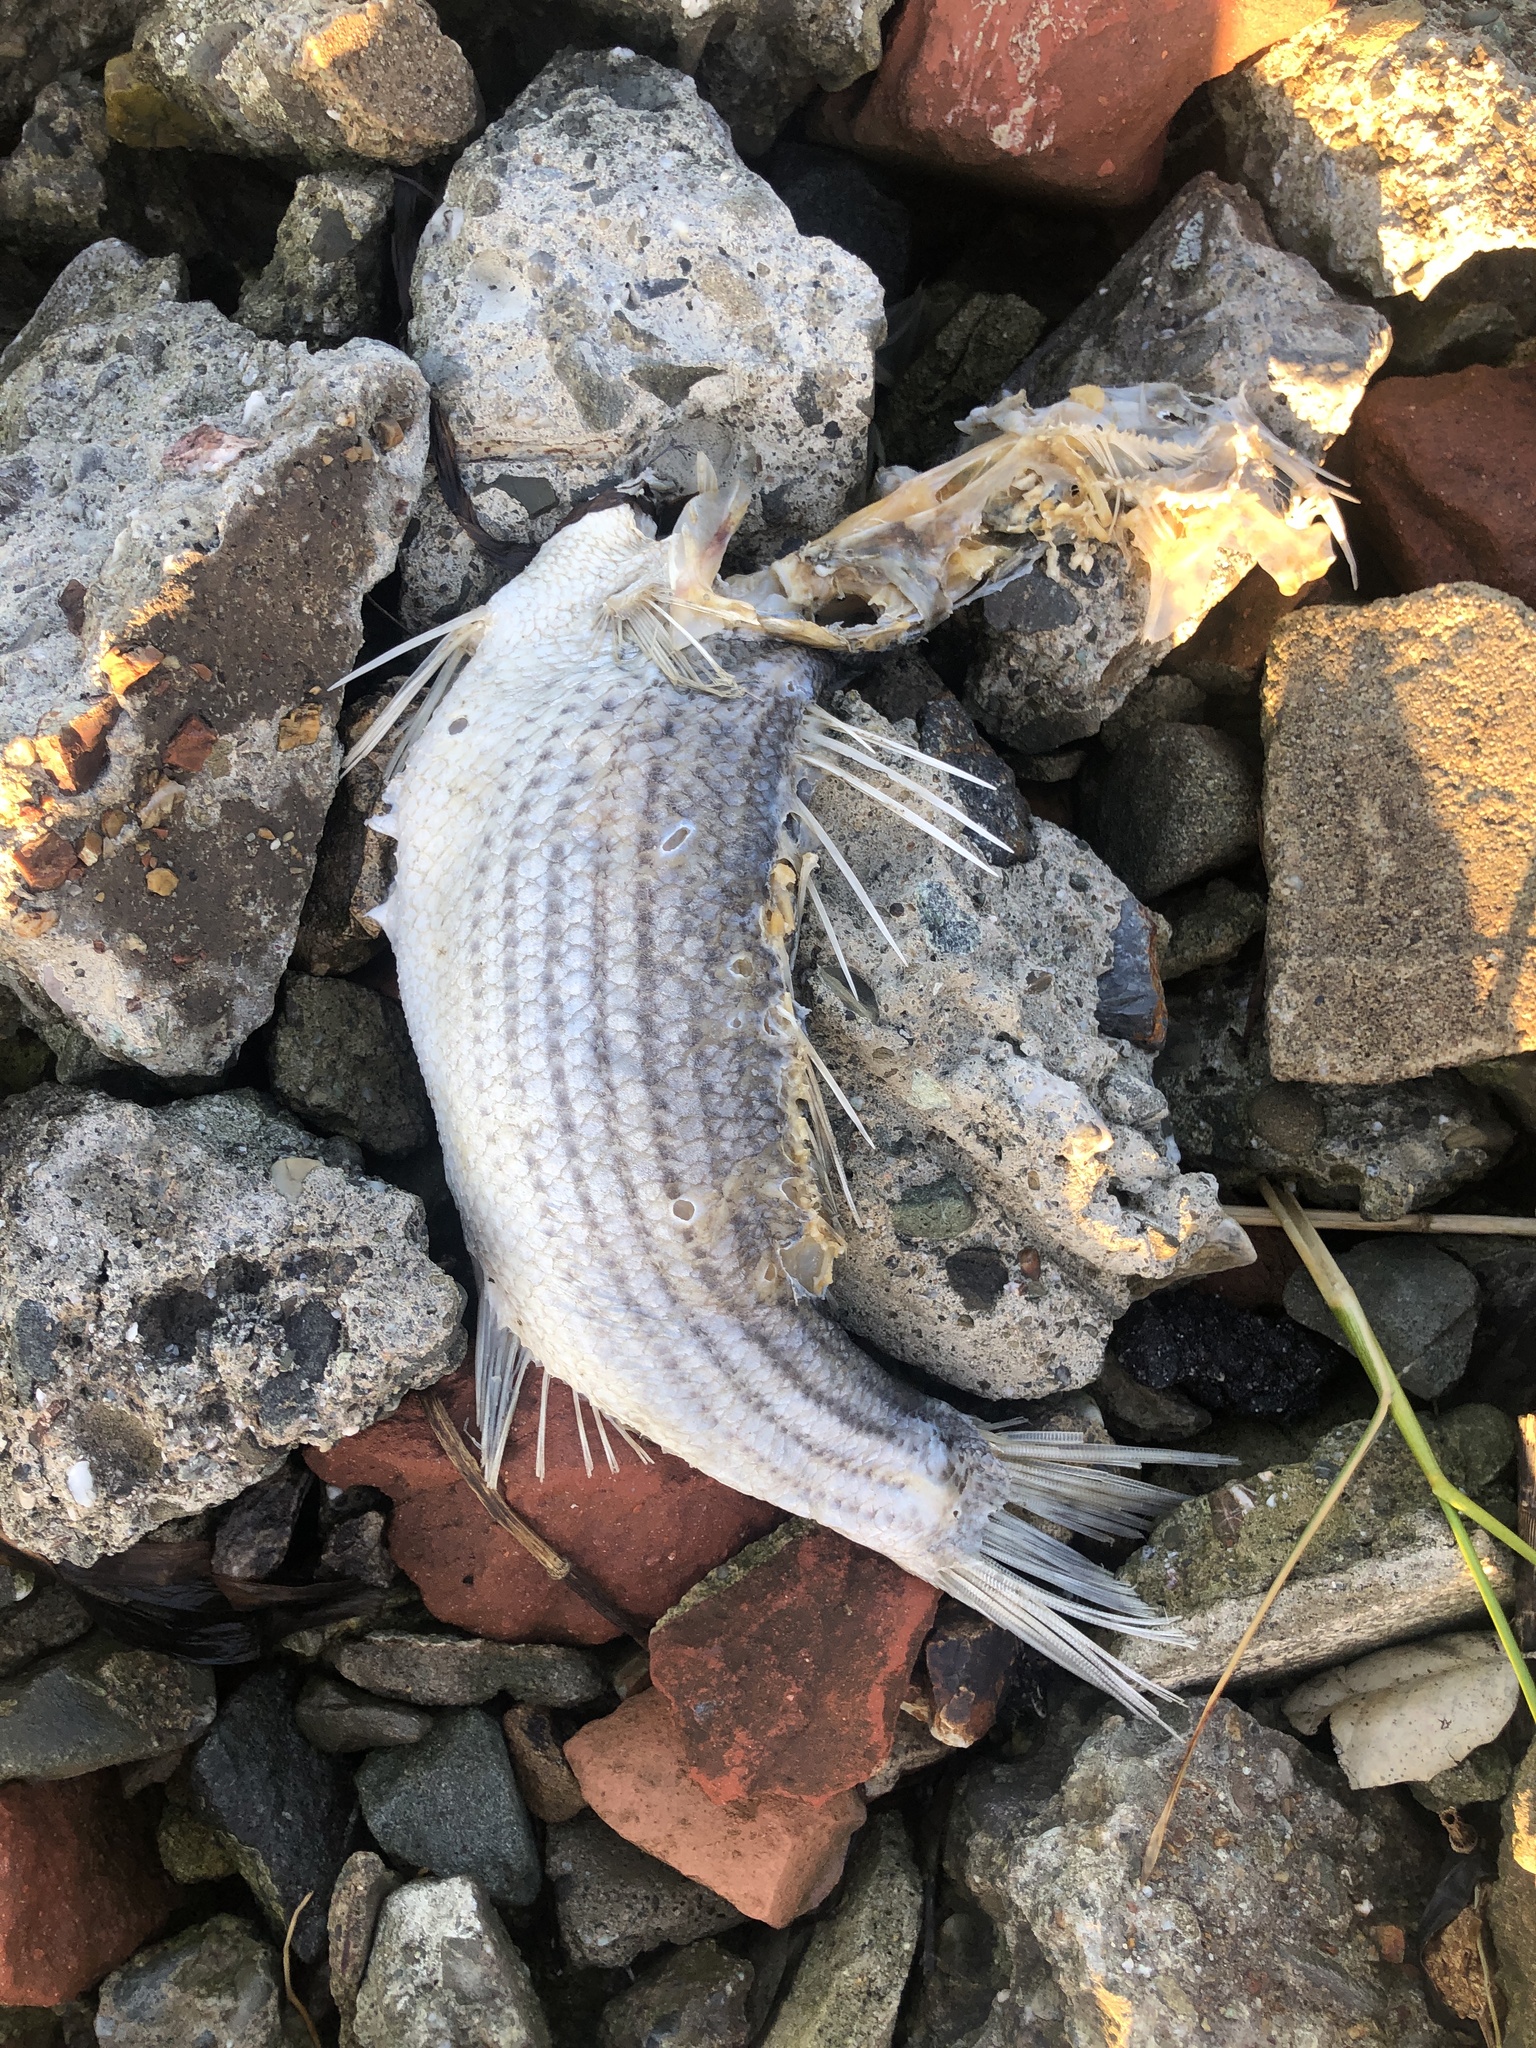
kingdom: Animalia
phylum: Chordata
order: Perciformes
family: Moronidae
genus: Morone
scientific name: Morone saxatilis
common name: Striped bass
